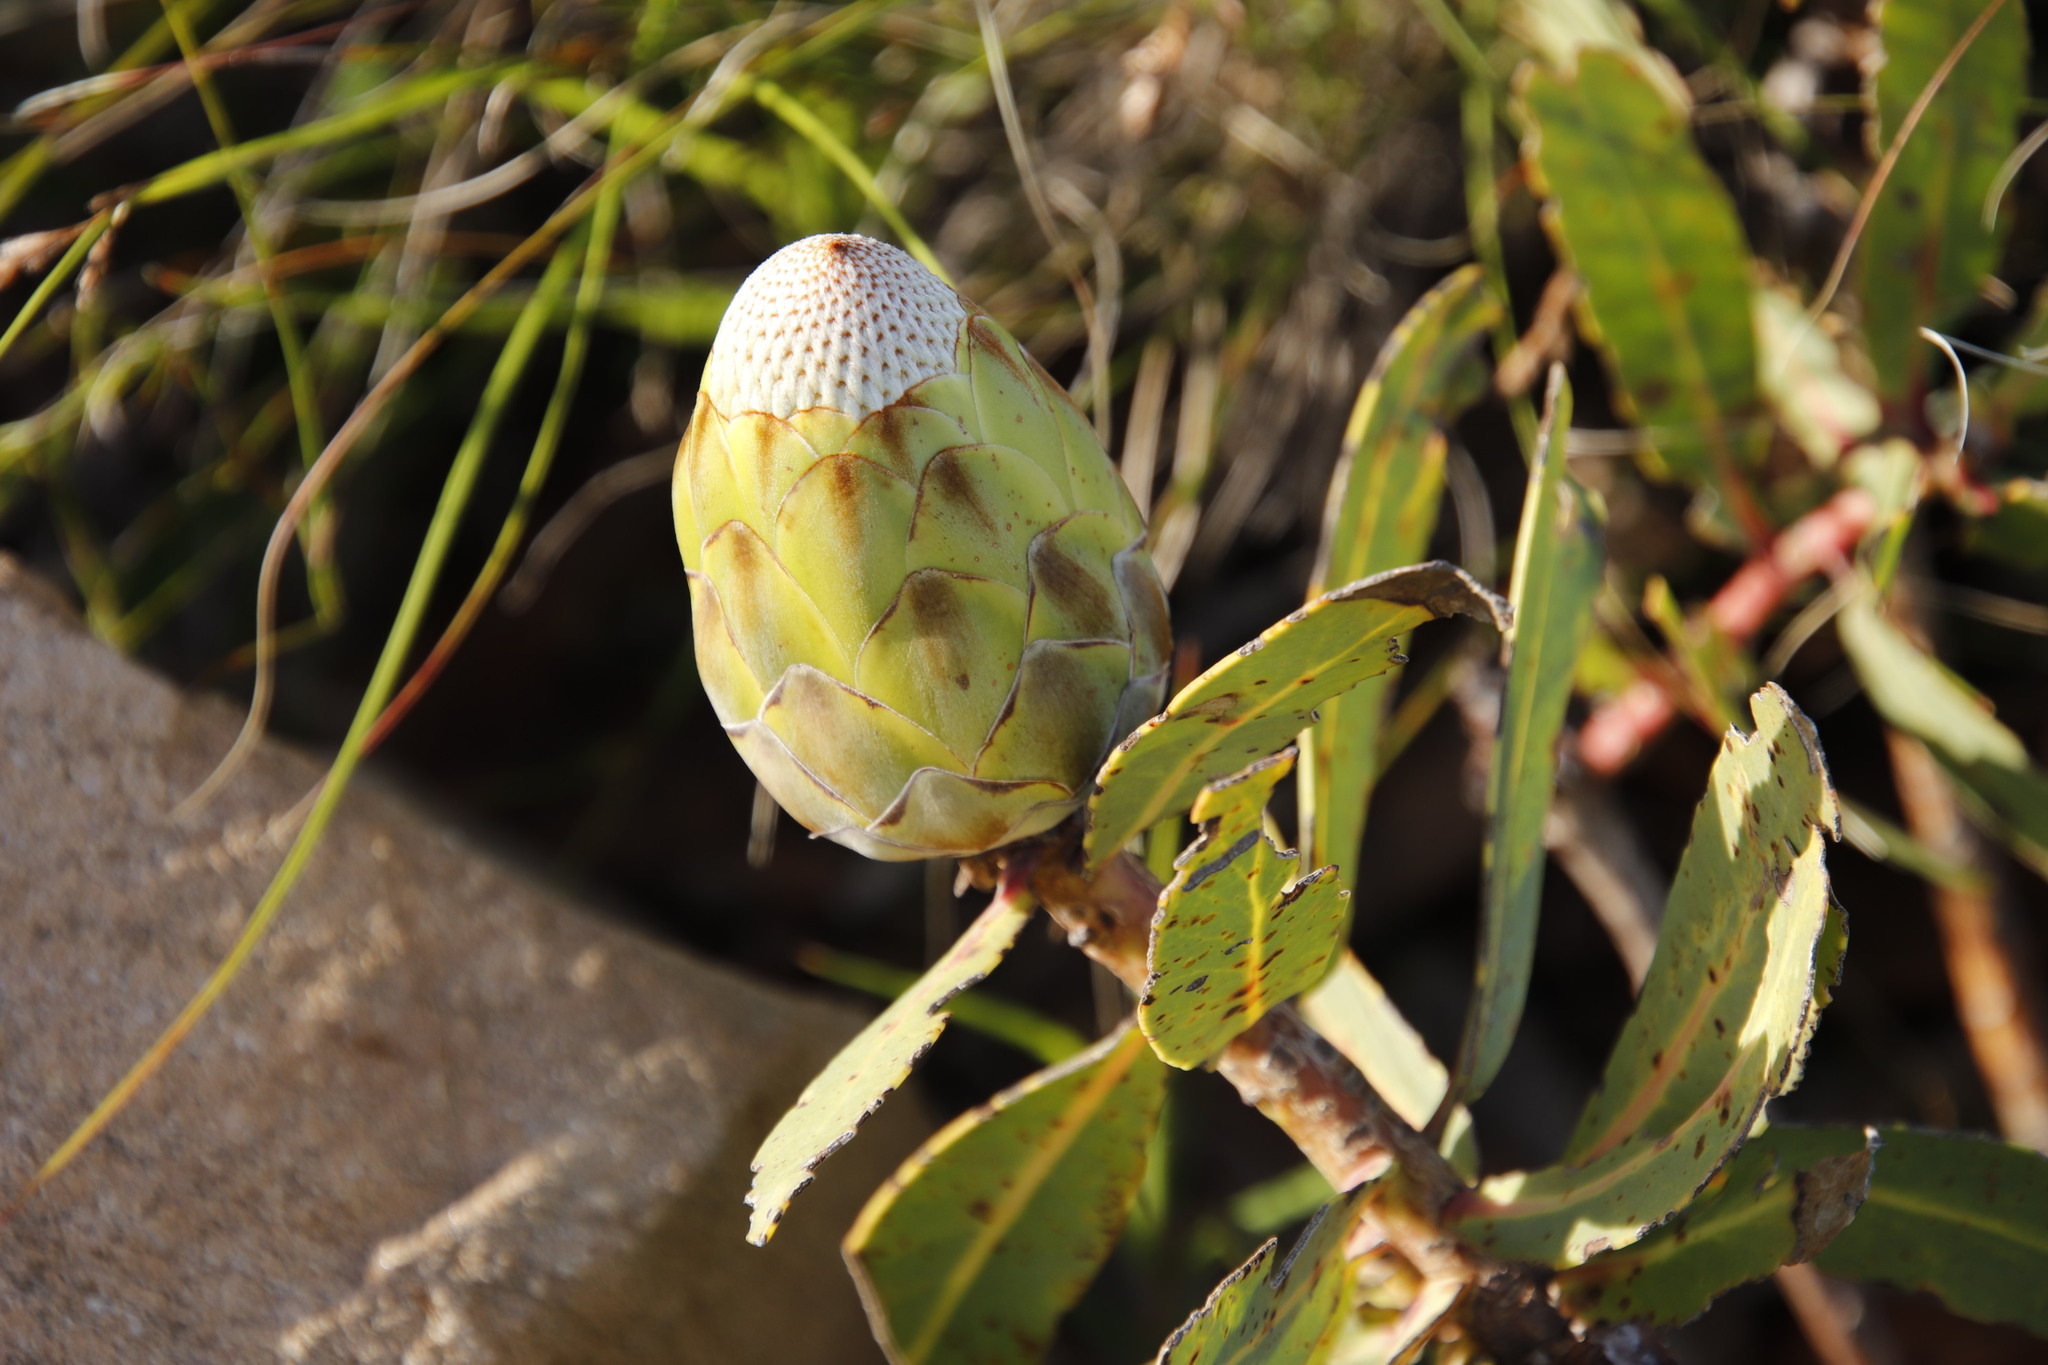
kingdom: Plantae
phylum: Tracheophyta
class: Magnoliopsida
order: Proteales
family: Proteaceae
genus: Protea
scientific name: Protea nitida
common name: Tree protea
